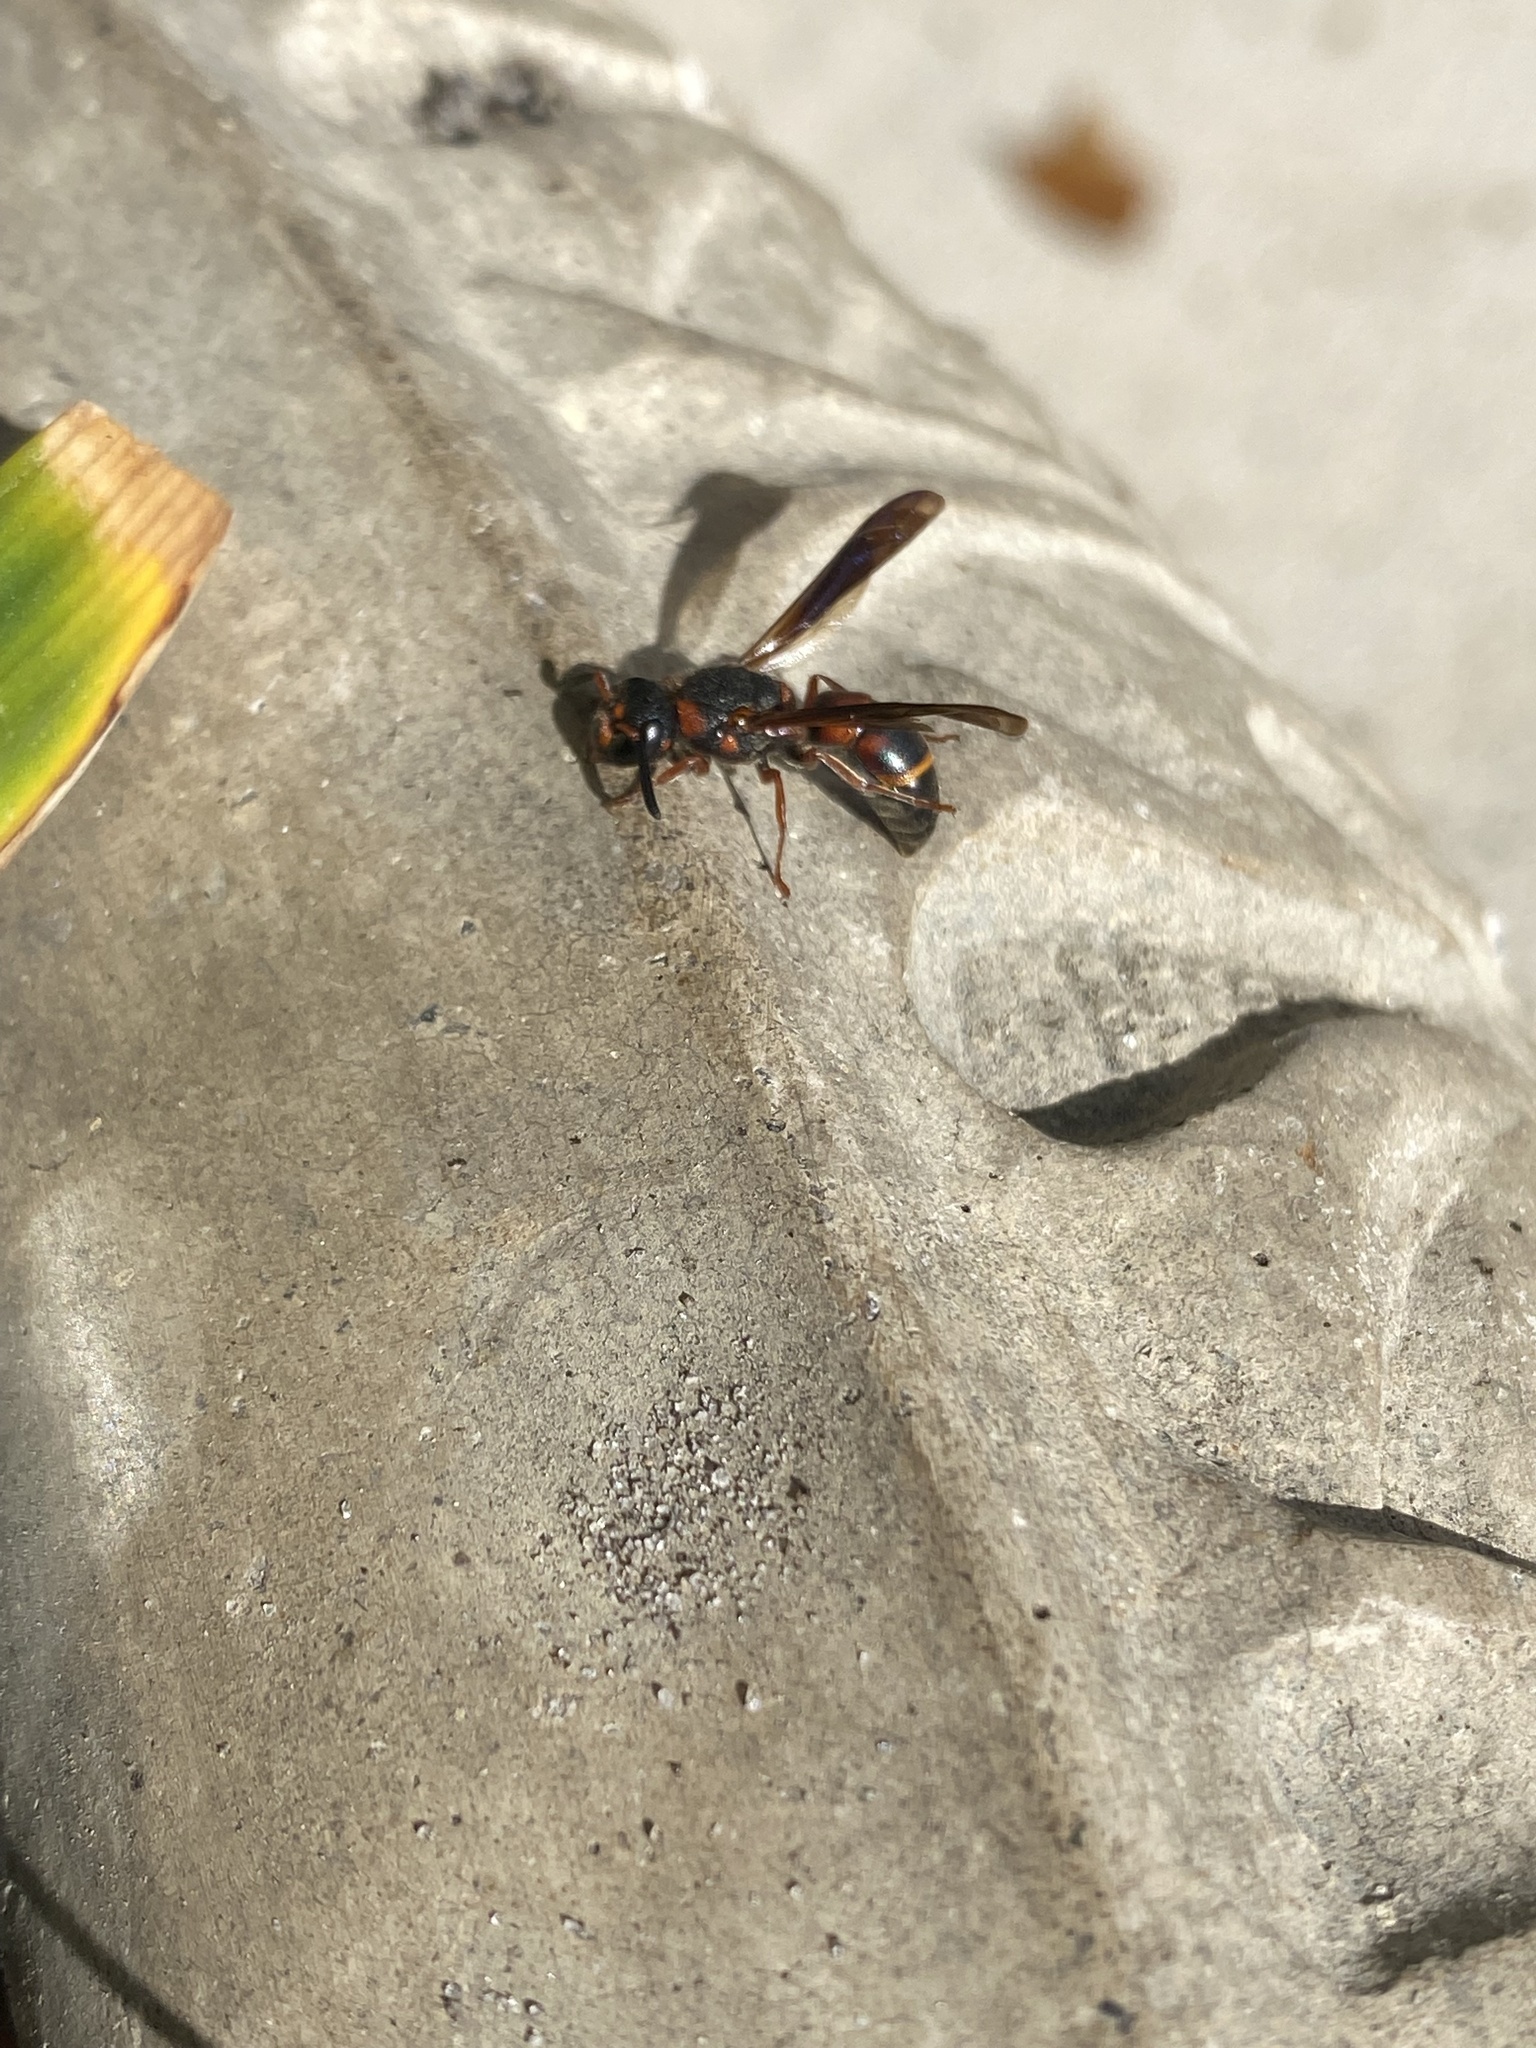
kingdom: Animalia
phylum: Arthropoda
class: Insecta
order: Hymenoptera
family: Eumenidae
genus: Pachodynerus
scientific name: Pachodynerus erynnis
